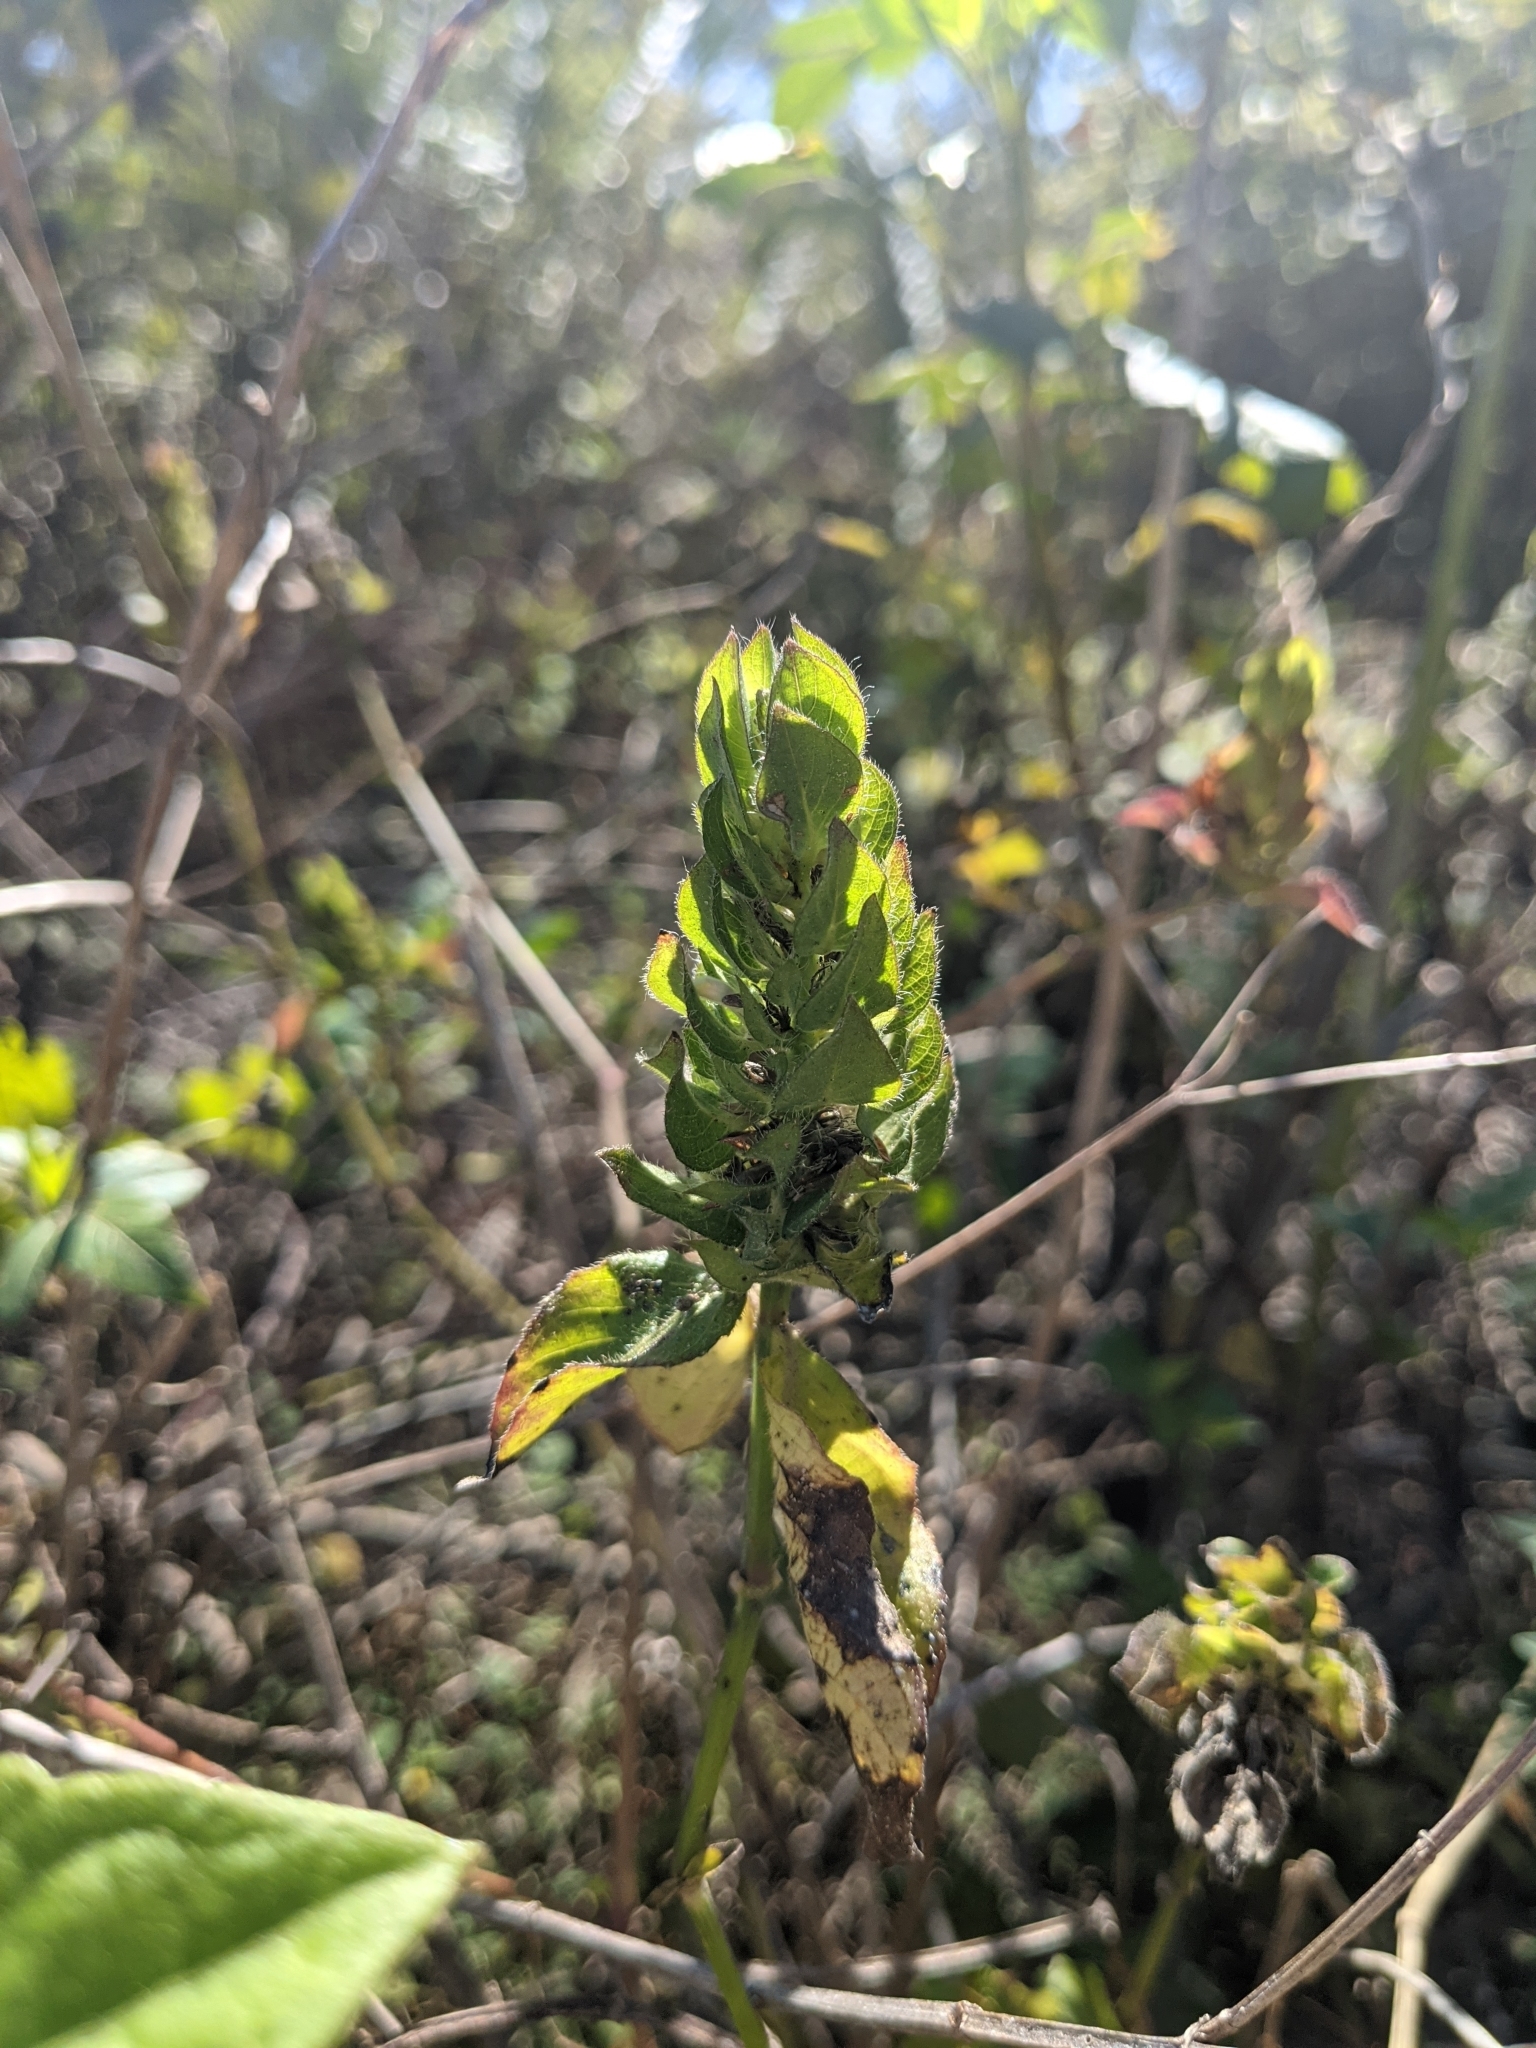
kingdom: Plantae
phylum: Tracheophyta
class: Magnoliopsida
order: Lamiales
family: Acanthaceae
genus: Ruellia
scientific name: Ruellia blechum
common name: Browne's blechum
